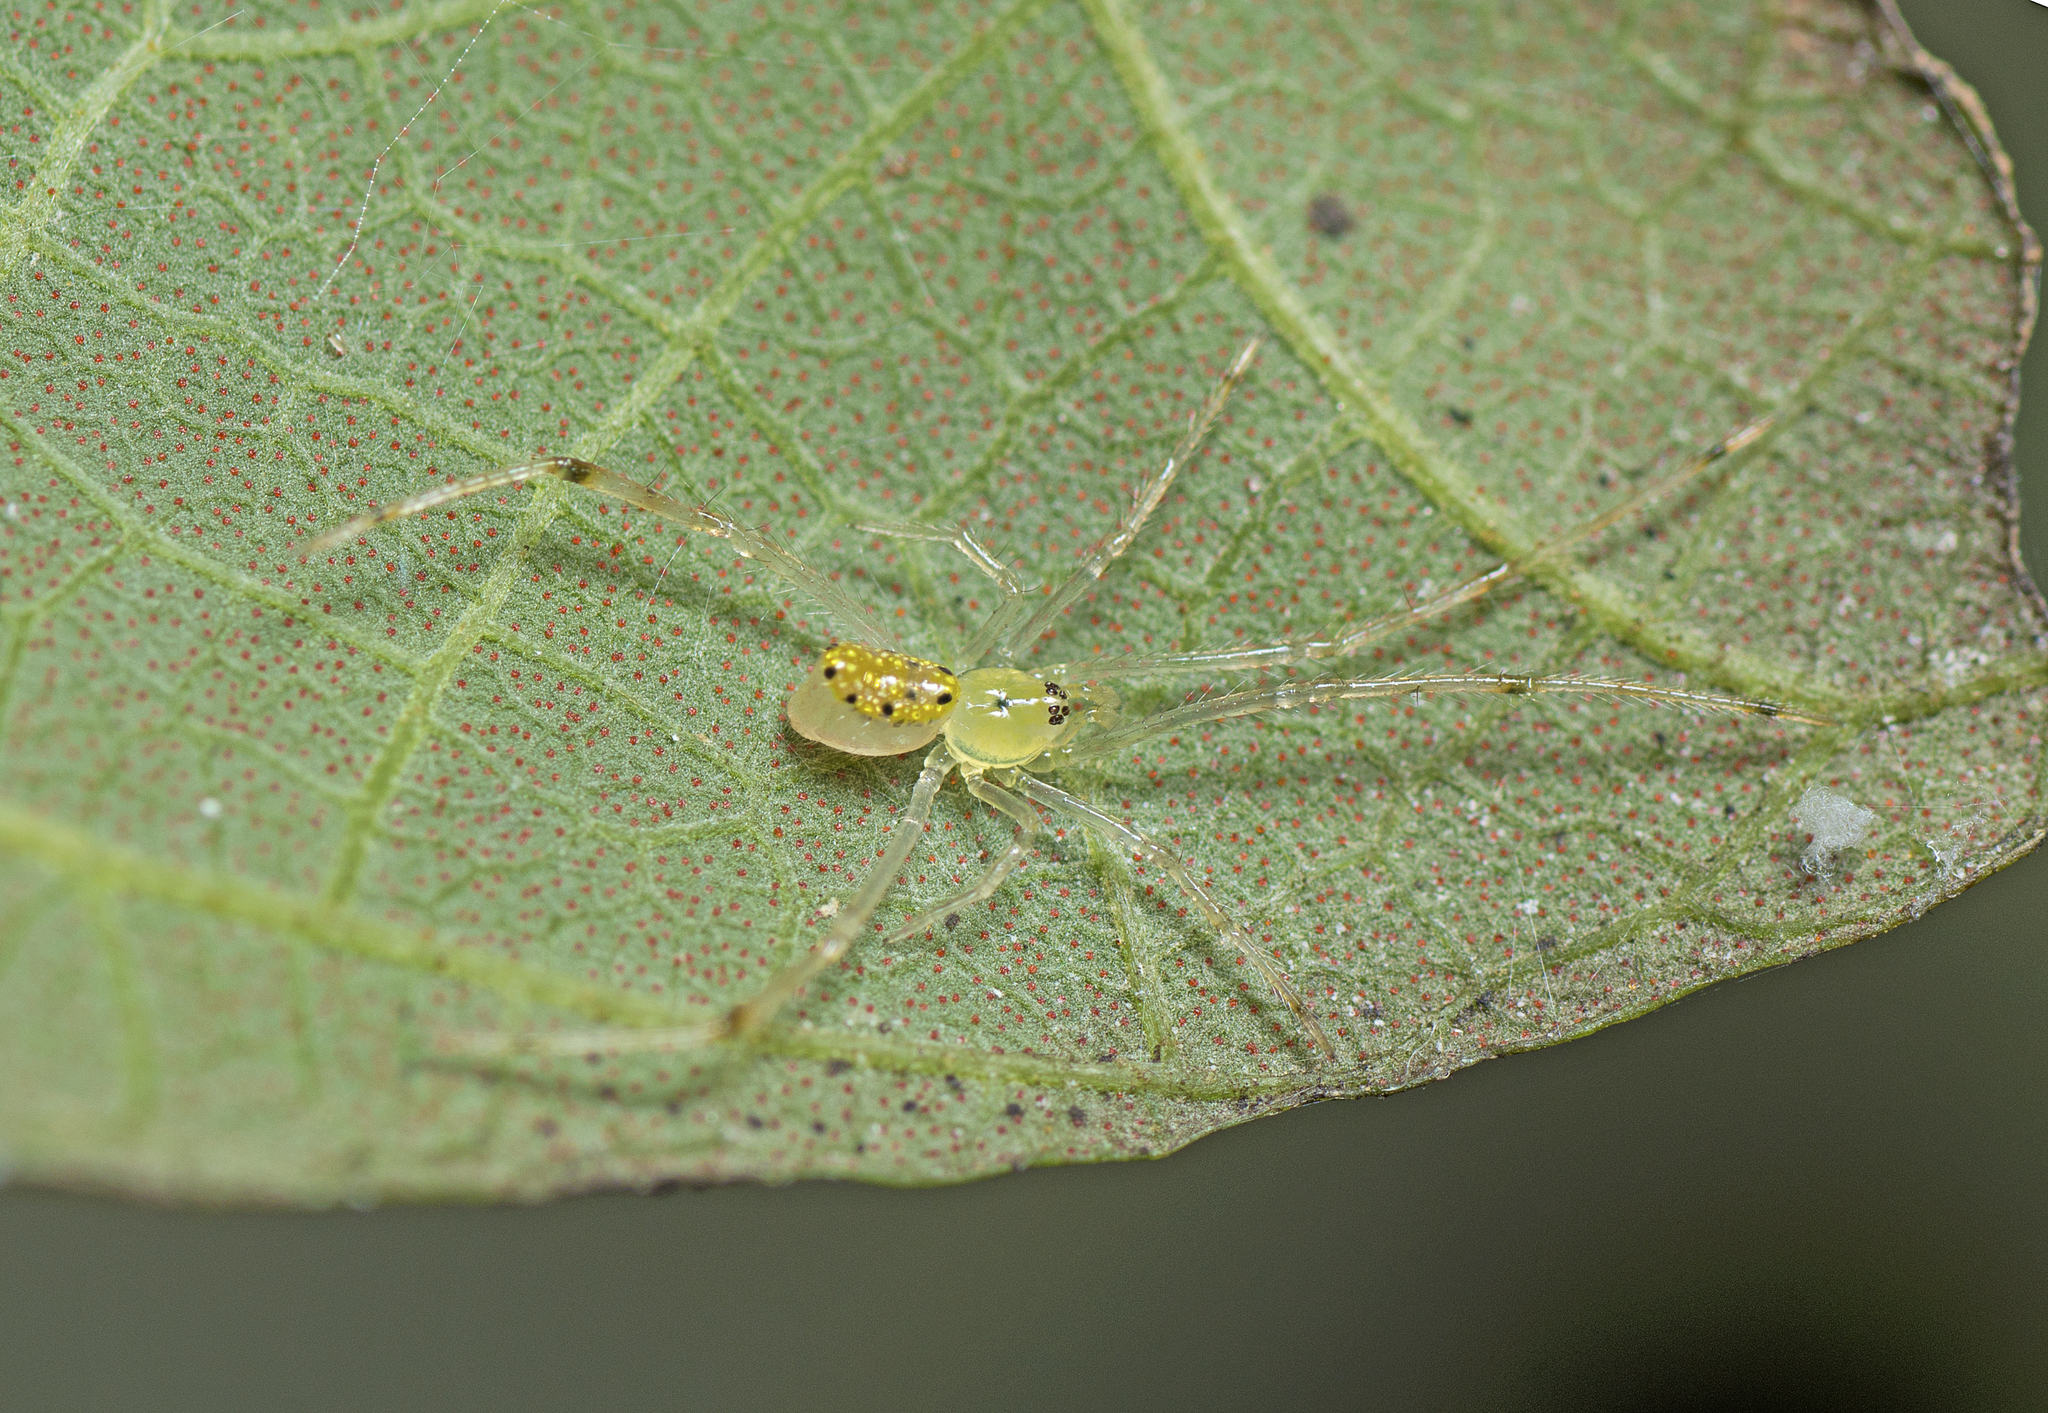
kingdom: Animalia
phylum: Arthropoda
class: Arachnida
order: Araneae
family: Theridiidae
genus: Thwaitesia
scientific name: Thwaitesia nigronodosa
